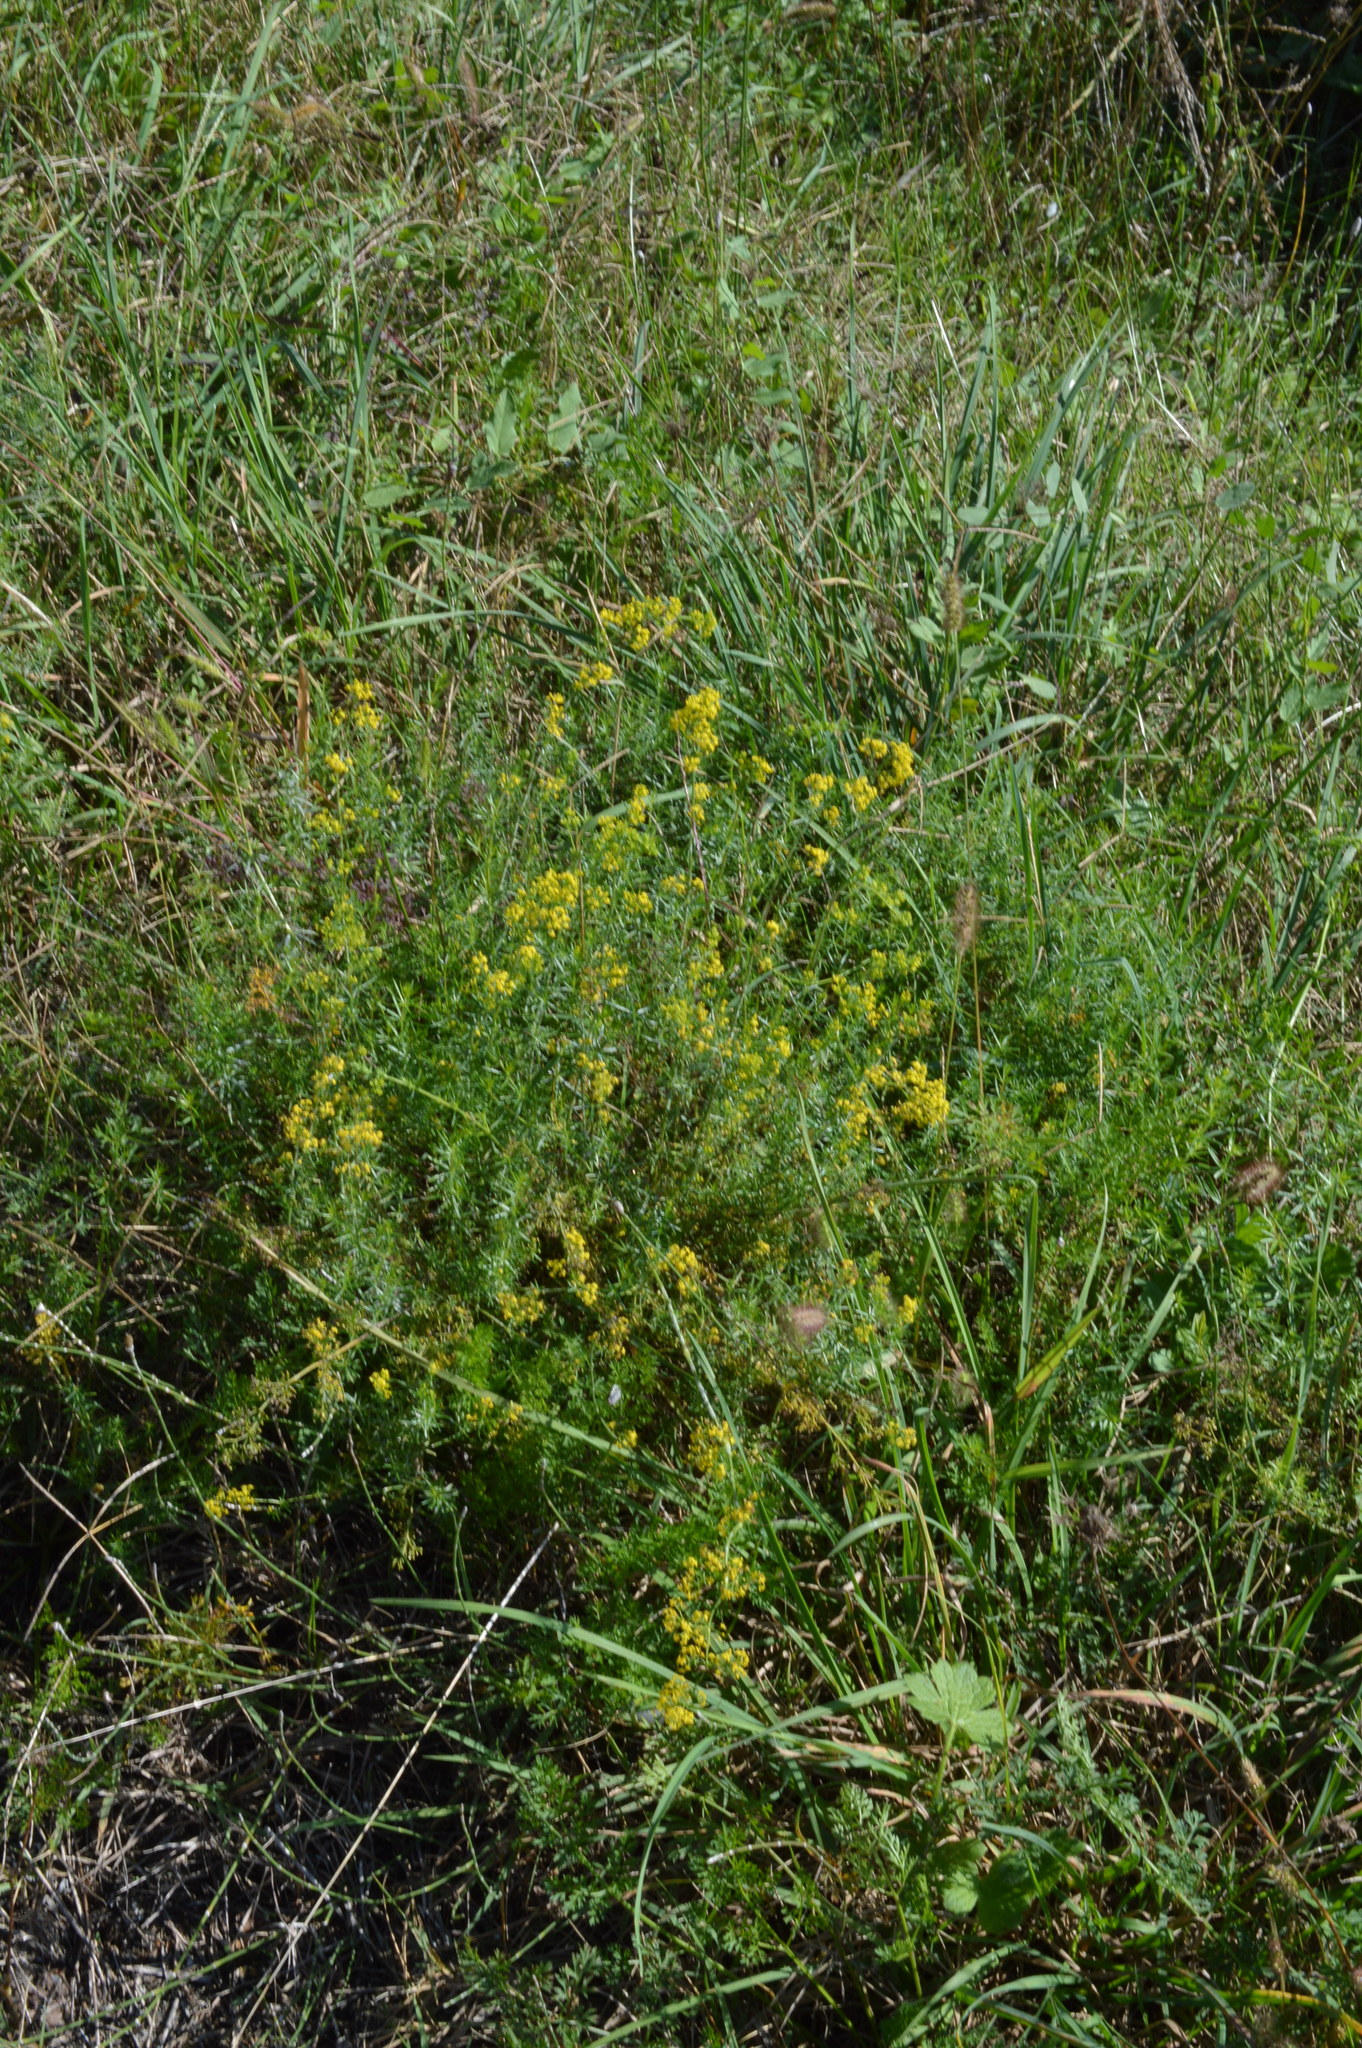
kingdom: Plantae
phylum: Tracheophyta
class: Magnoliopsida
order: Gentianales
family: Rubiaceae
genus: Galium
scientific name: Galium verum
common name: Lady's bedstraw
